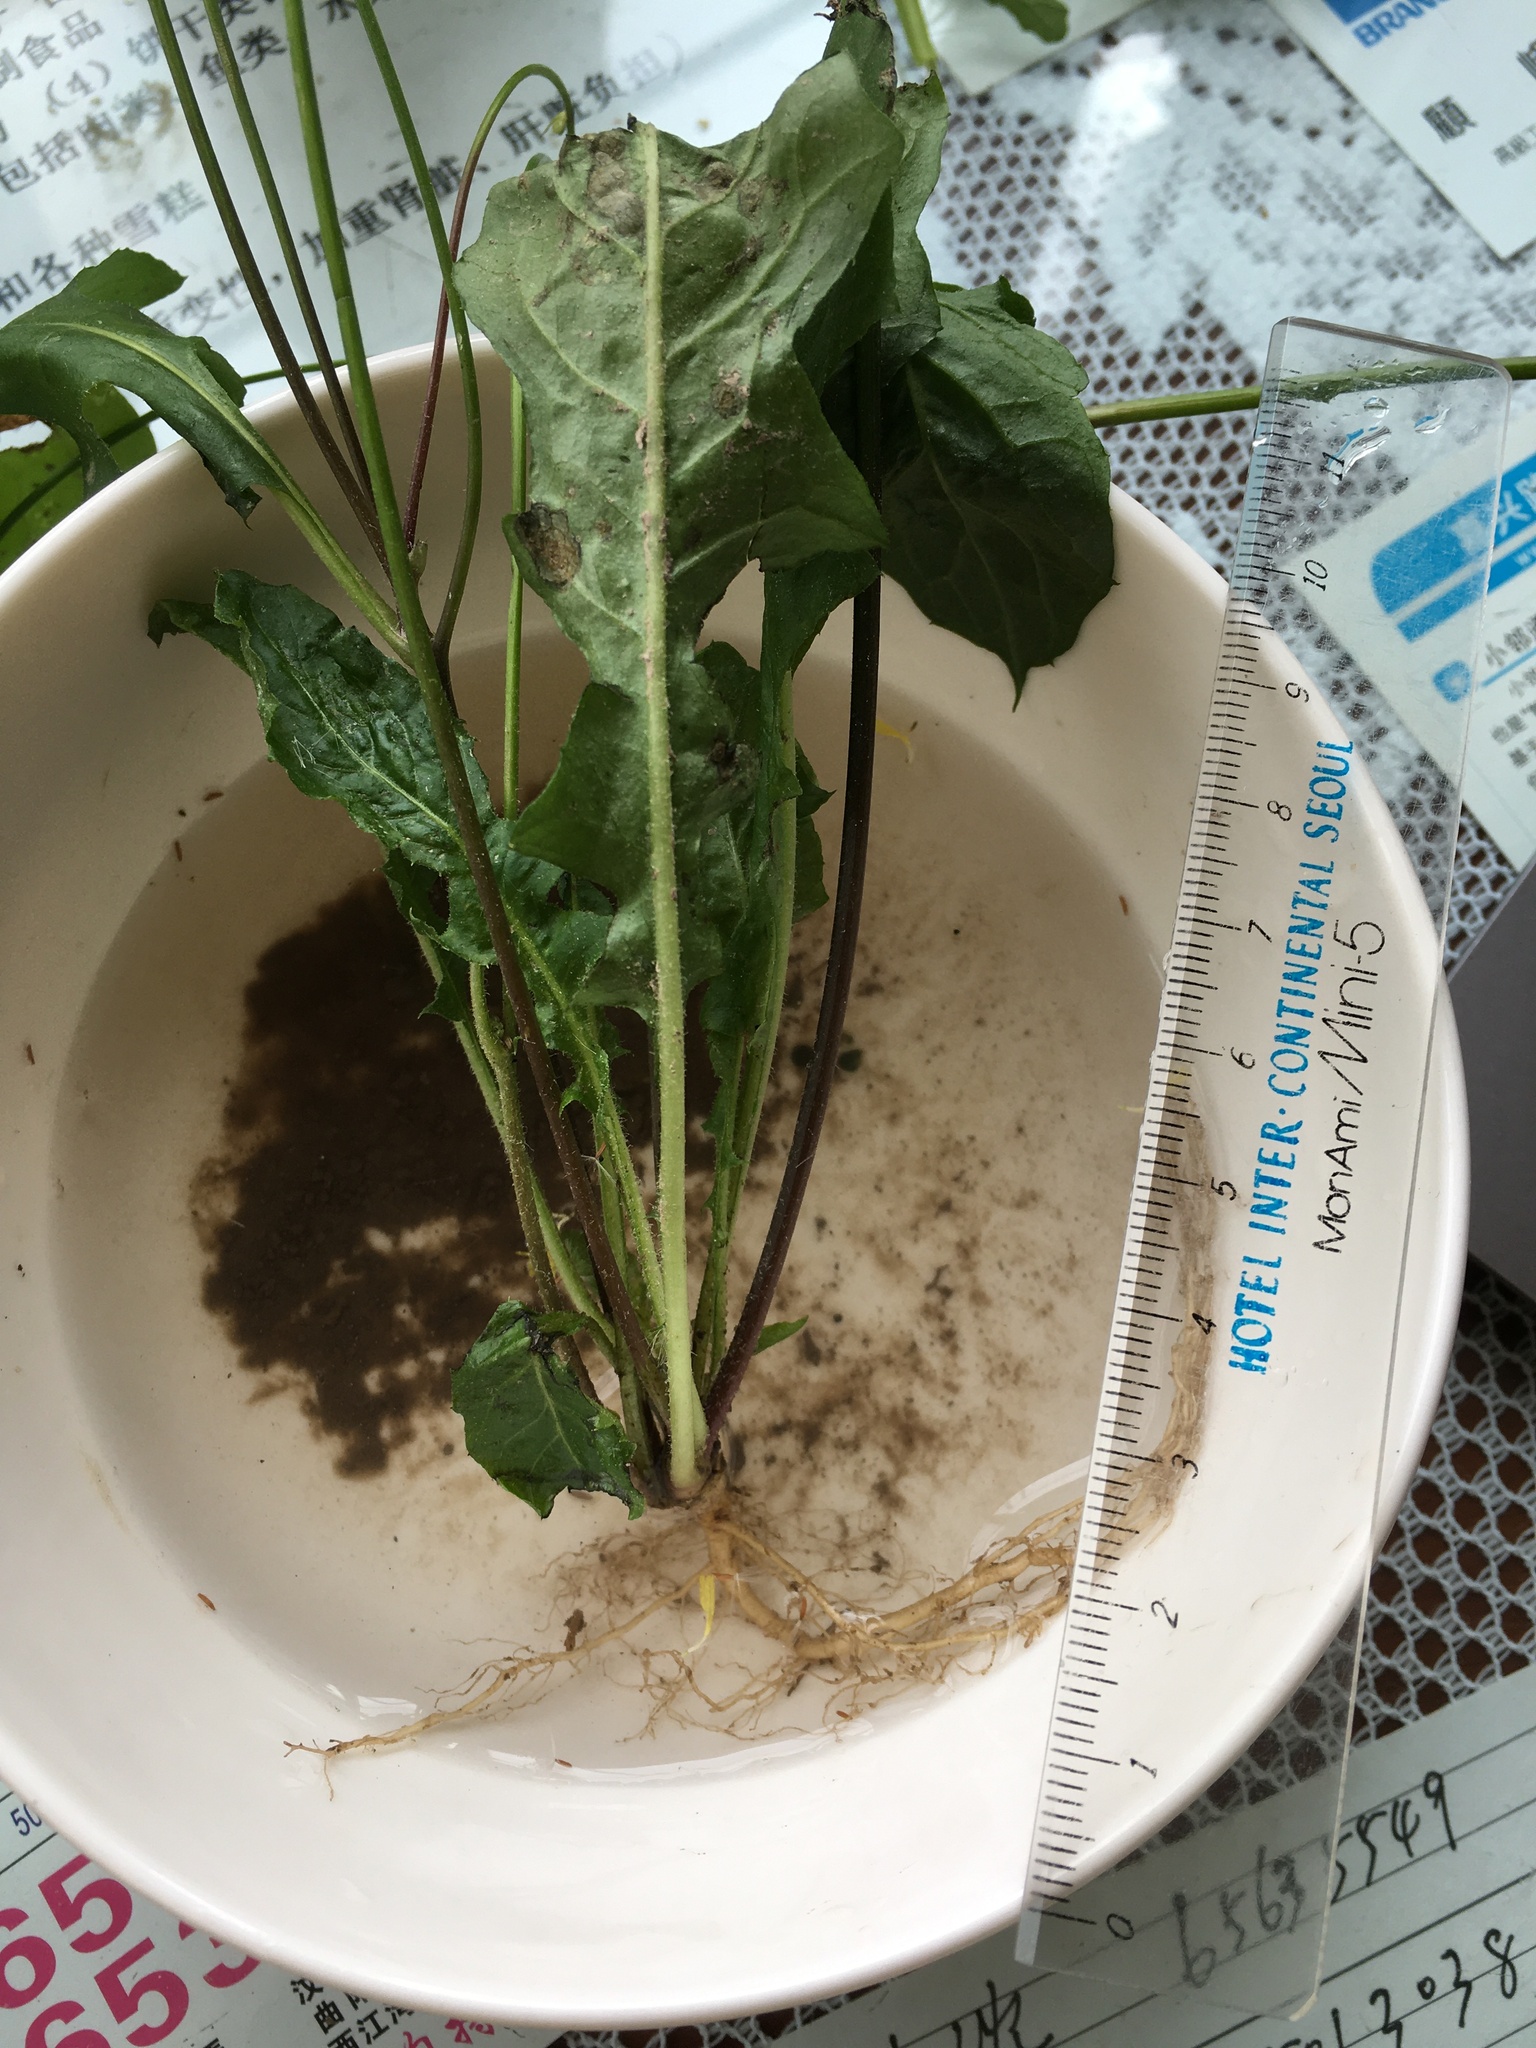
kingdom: Plantae
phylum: Tracheophyta
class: Magnoliopsida
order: Asterales
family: Asteraceae
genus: Youngia
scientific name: Youngia japonica
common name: Oriental false hawksbeard
